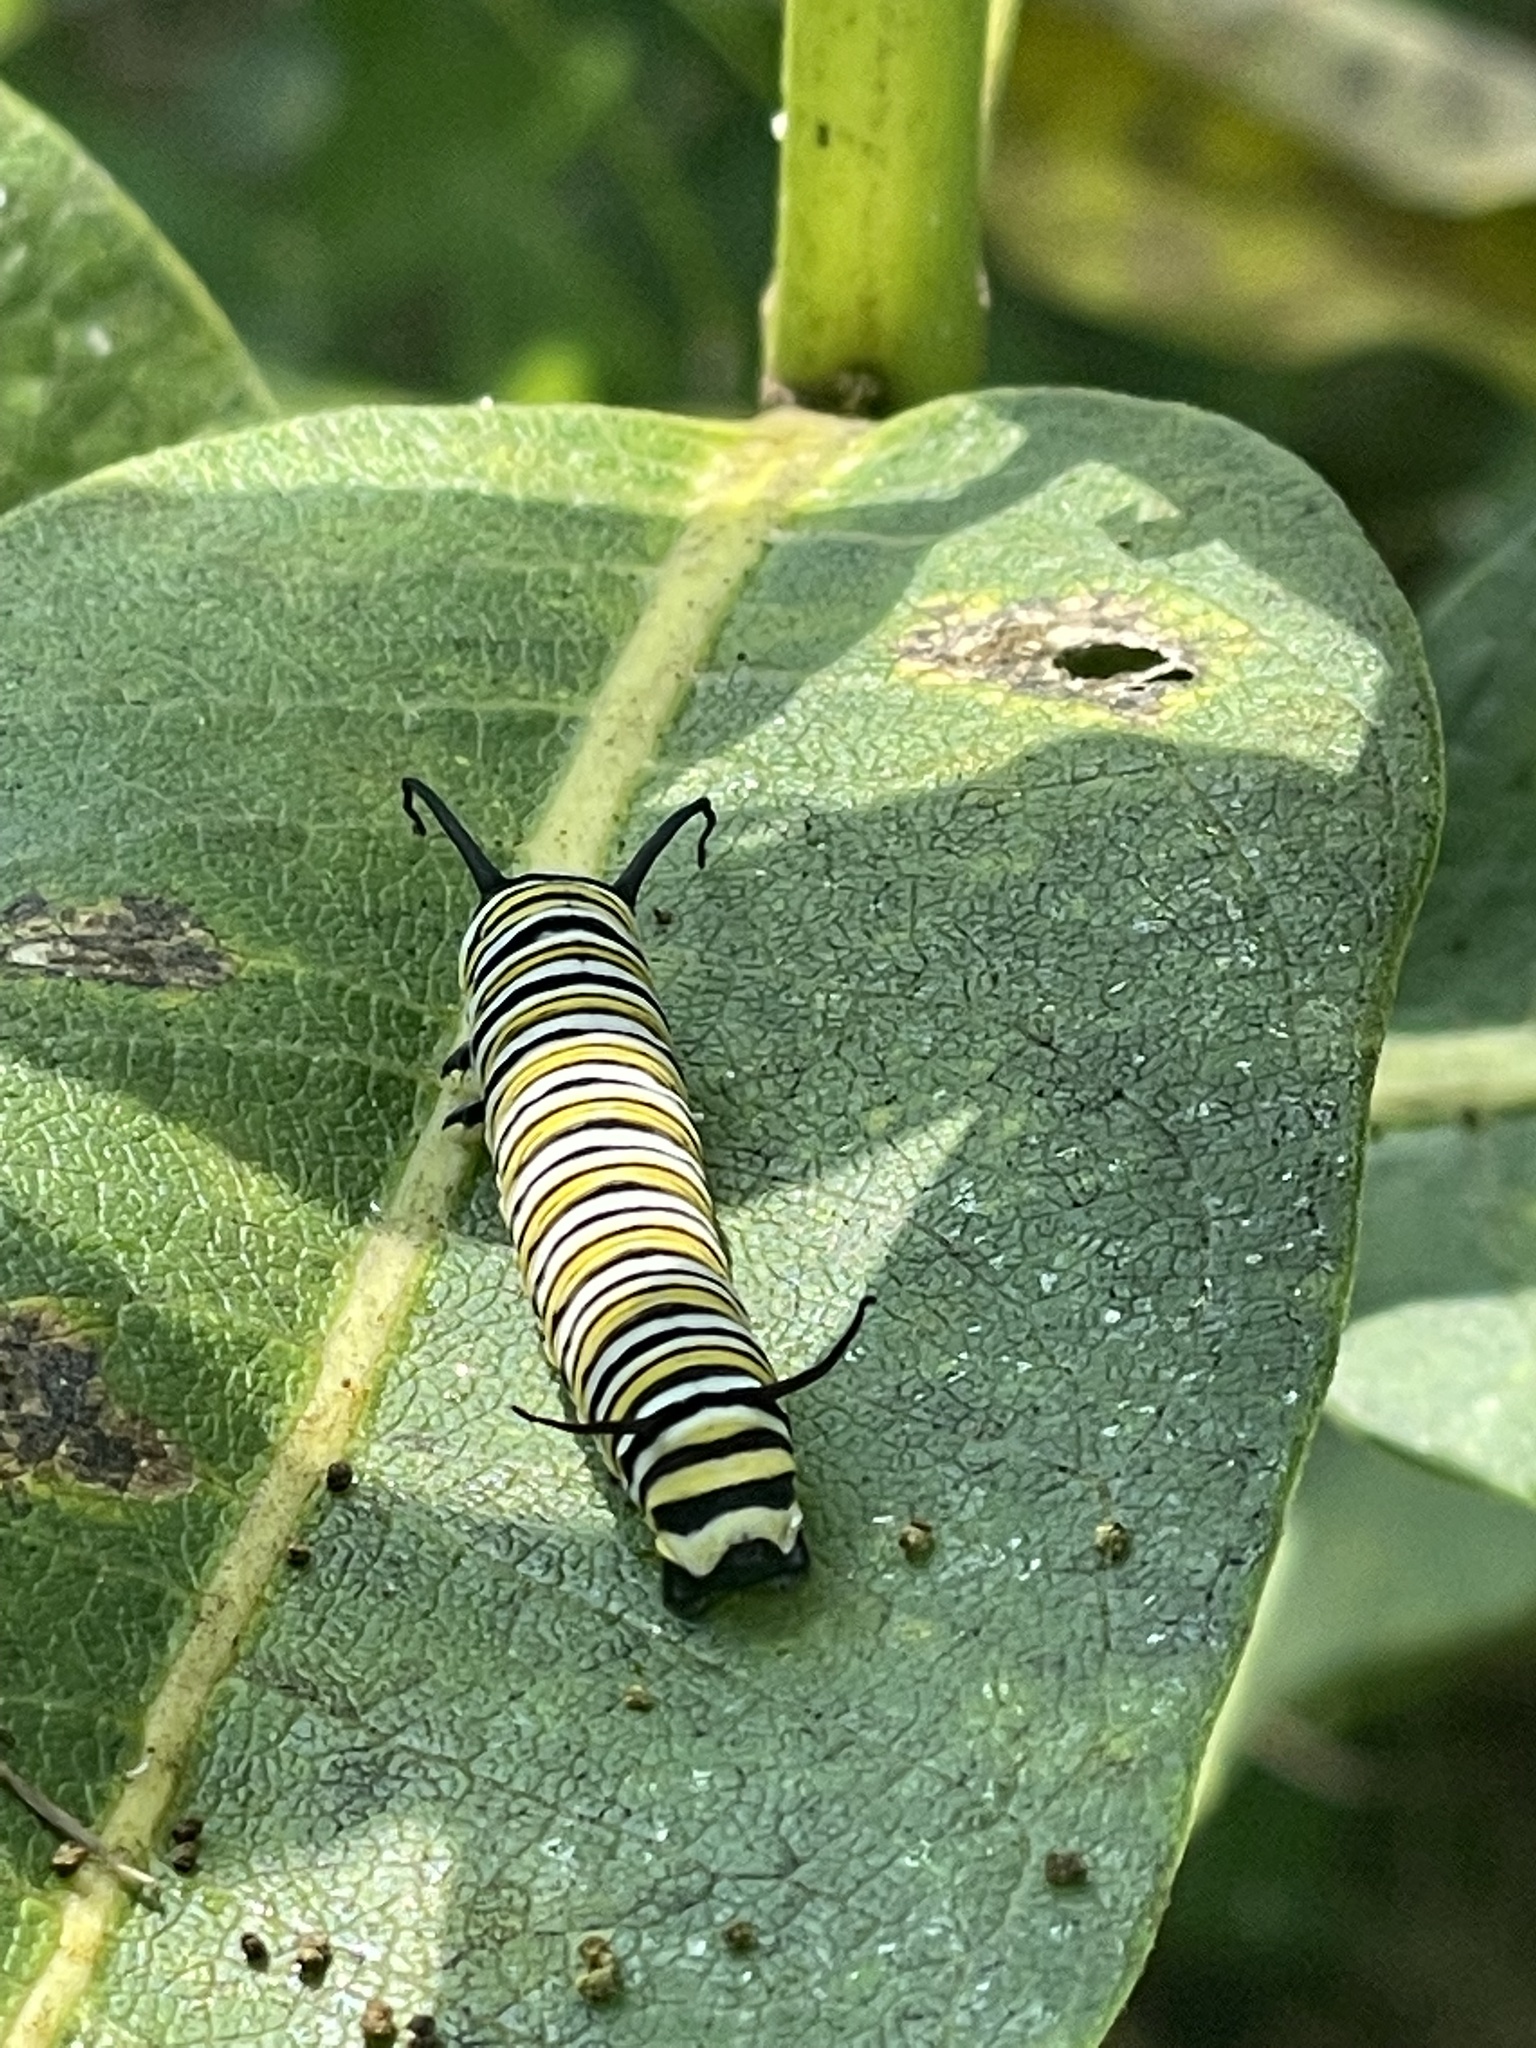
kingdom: Animalia
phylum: Arthropoda
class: Insecta
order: Lepidoptera
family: Nymphalidae
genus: Danaus
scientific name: Danaus plexippus
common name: Monarch
